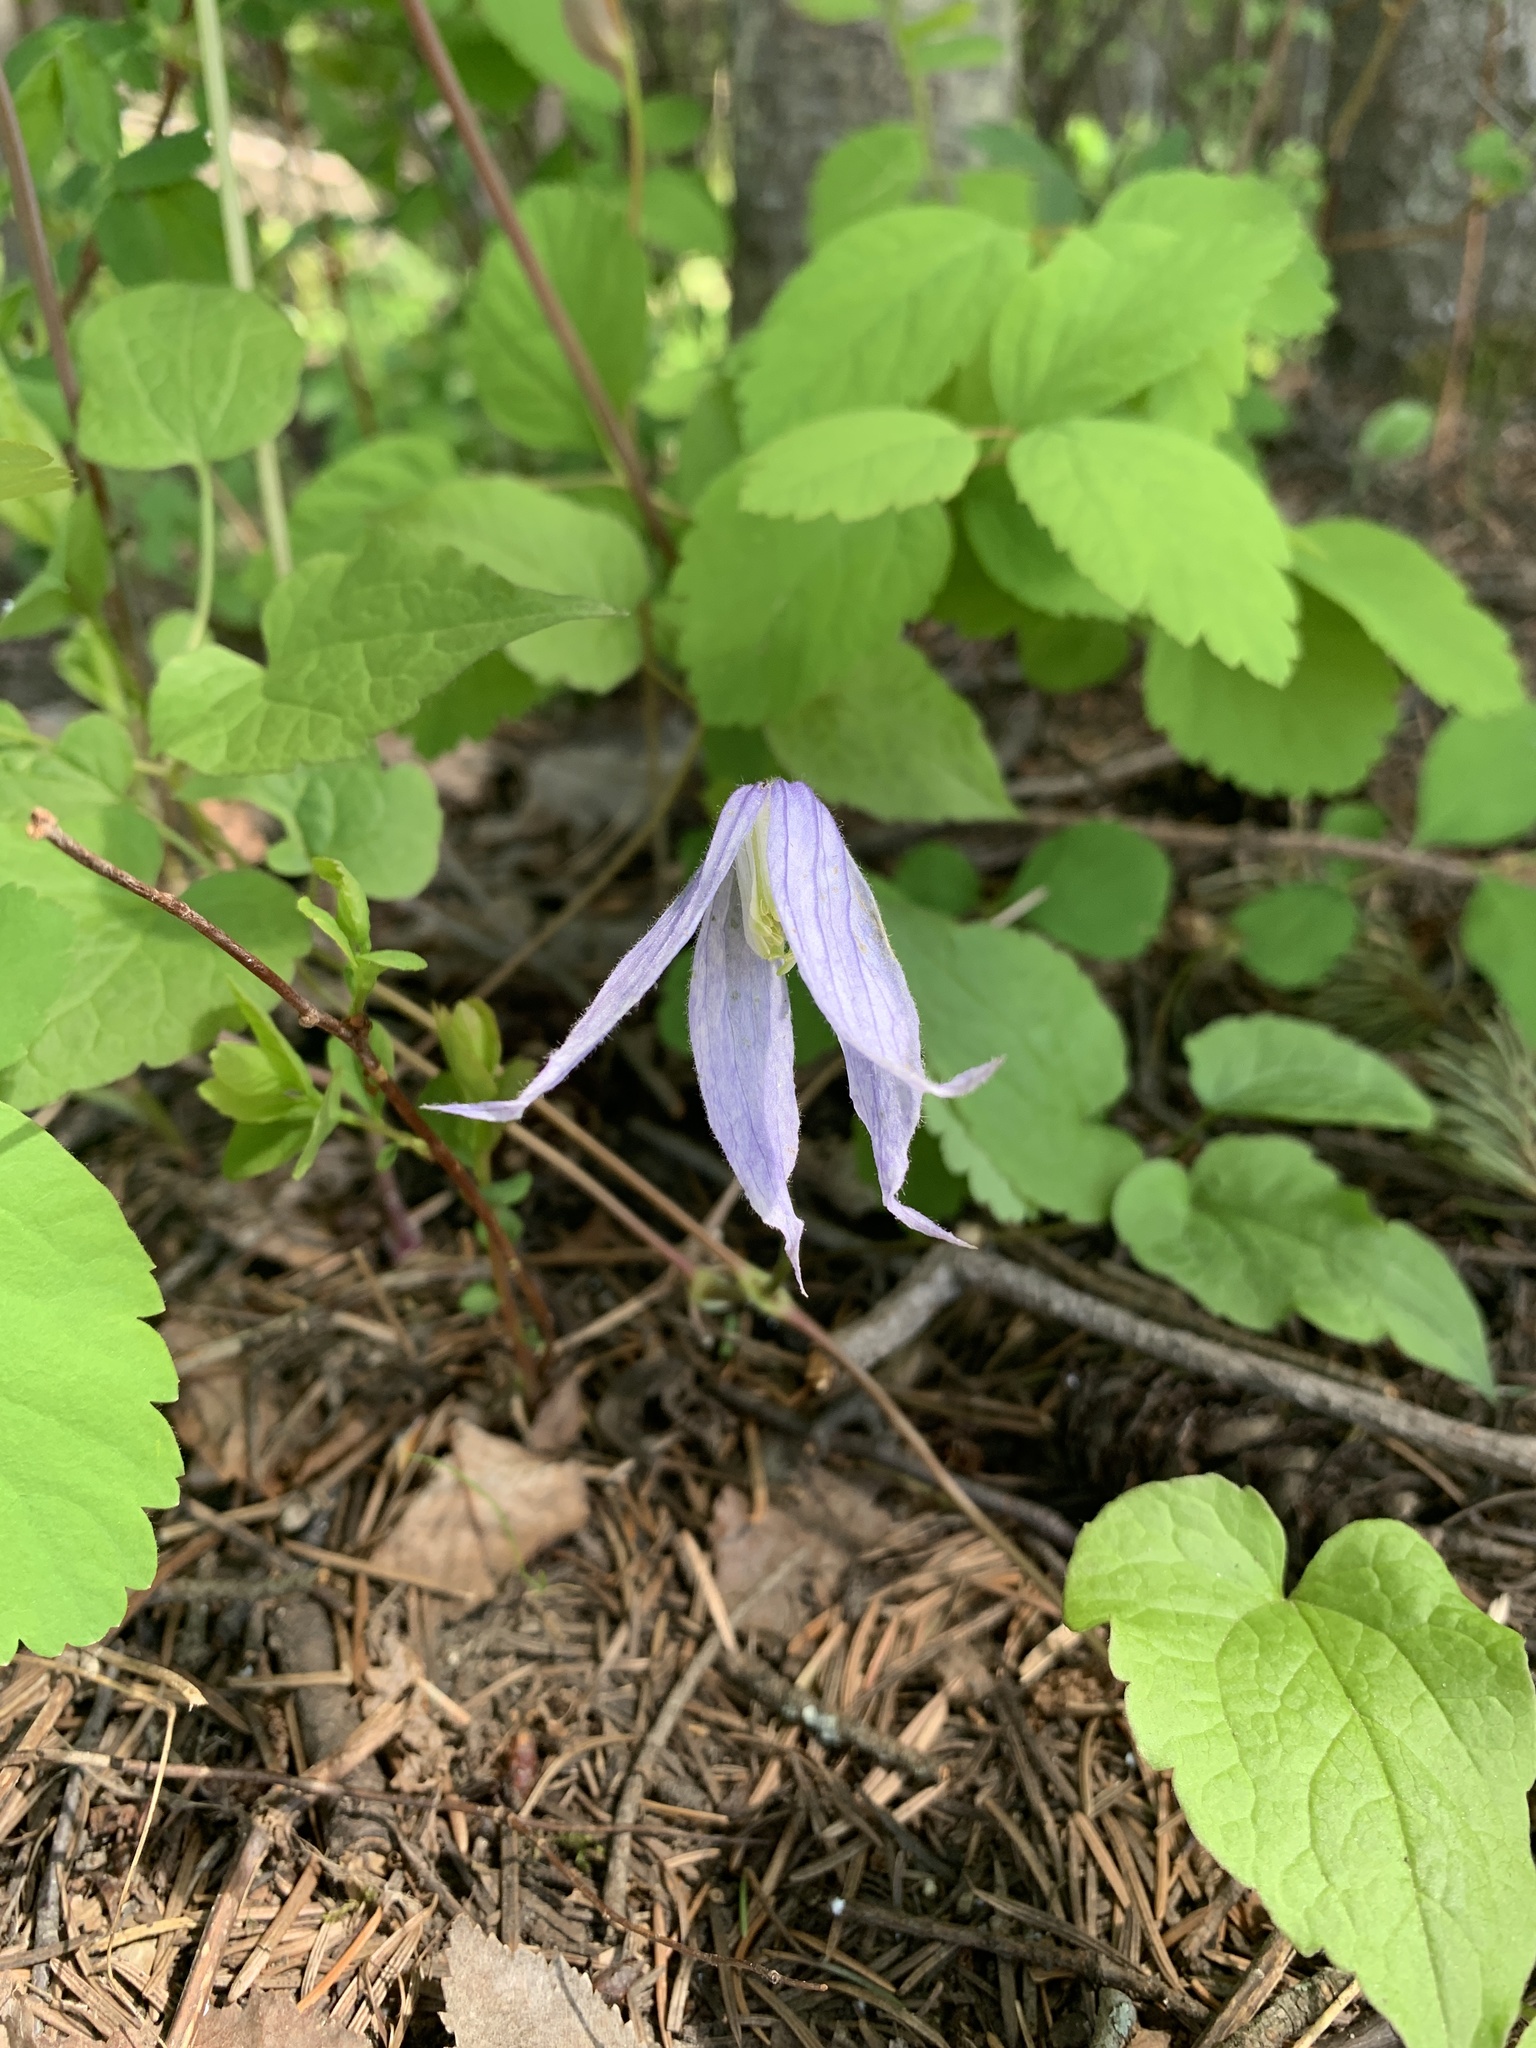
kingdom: Plantae
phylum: Tracheophyta
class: Magnoliopsida
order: Ranunculales
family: Ranunculaceae
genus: Clematis
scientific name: Clematis occidentalis
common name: Purple clematis
